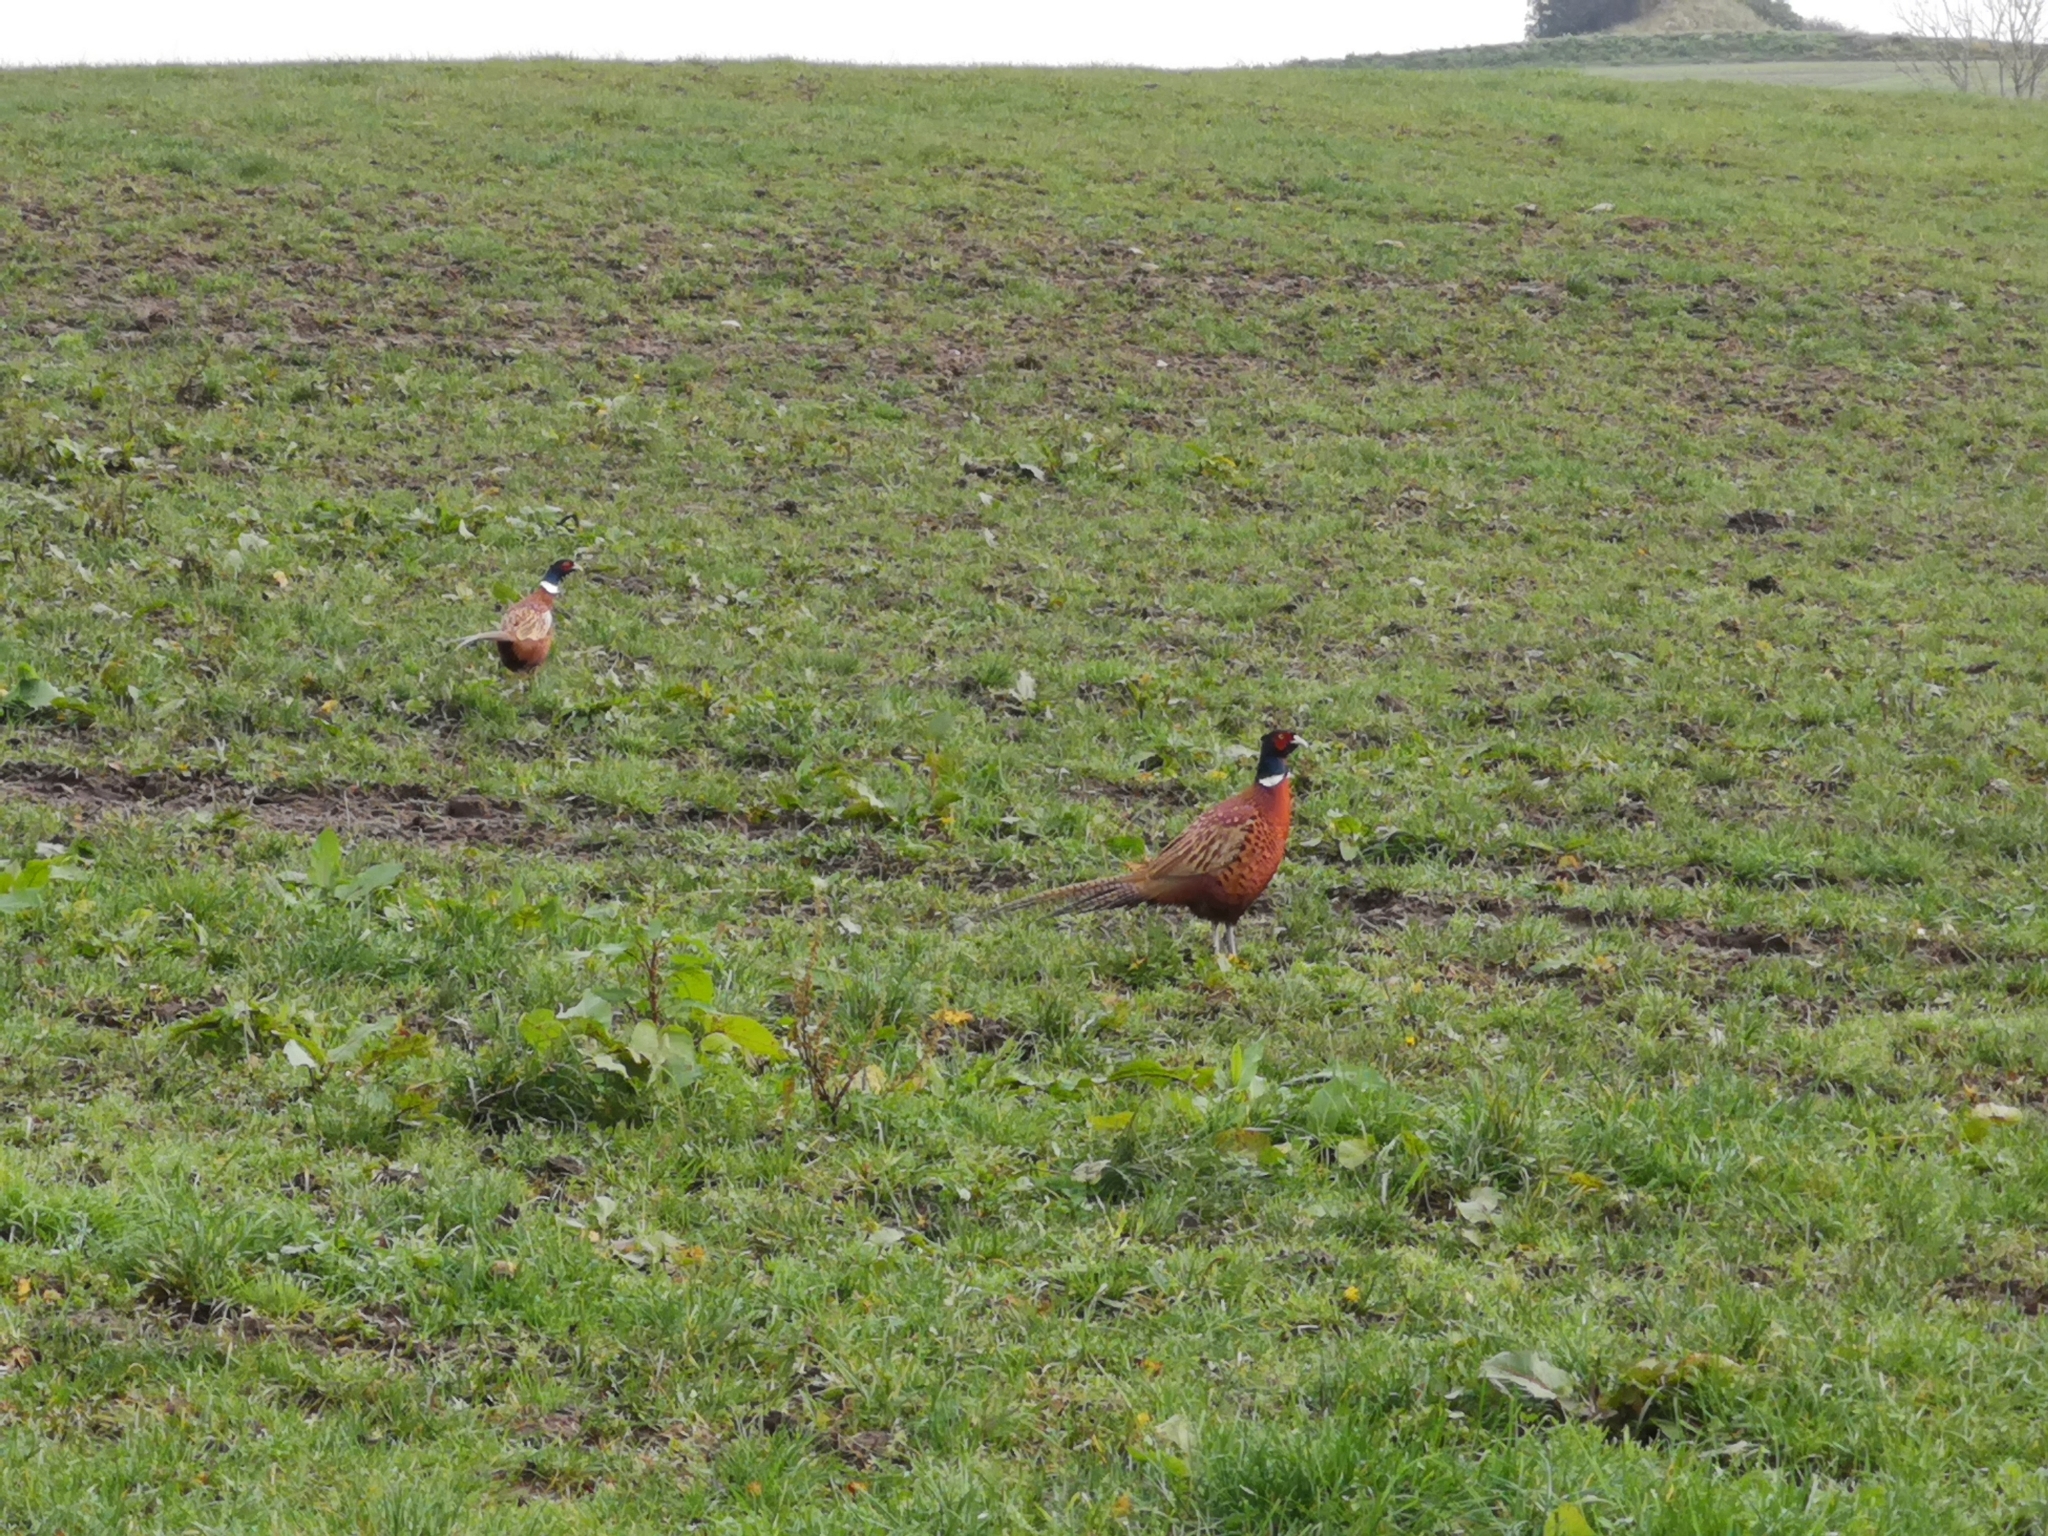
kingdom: Animalia
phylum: Chordata
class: Aves
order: Galliformes
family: Phasianidae
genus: Phasianus
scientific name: Phasianus colchicus
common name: Common pheasant
